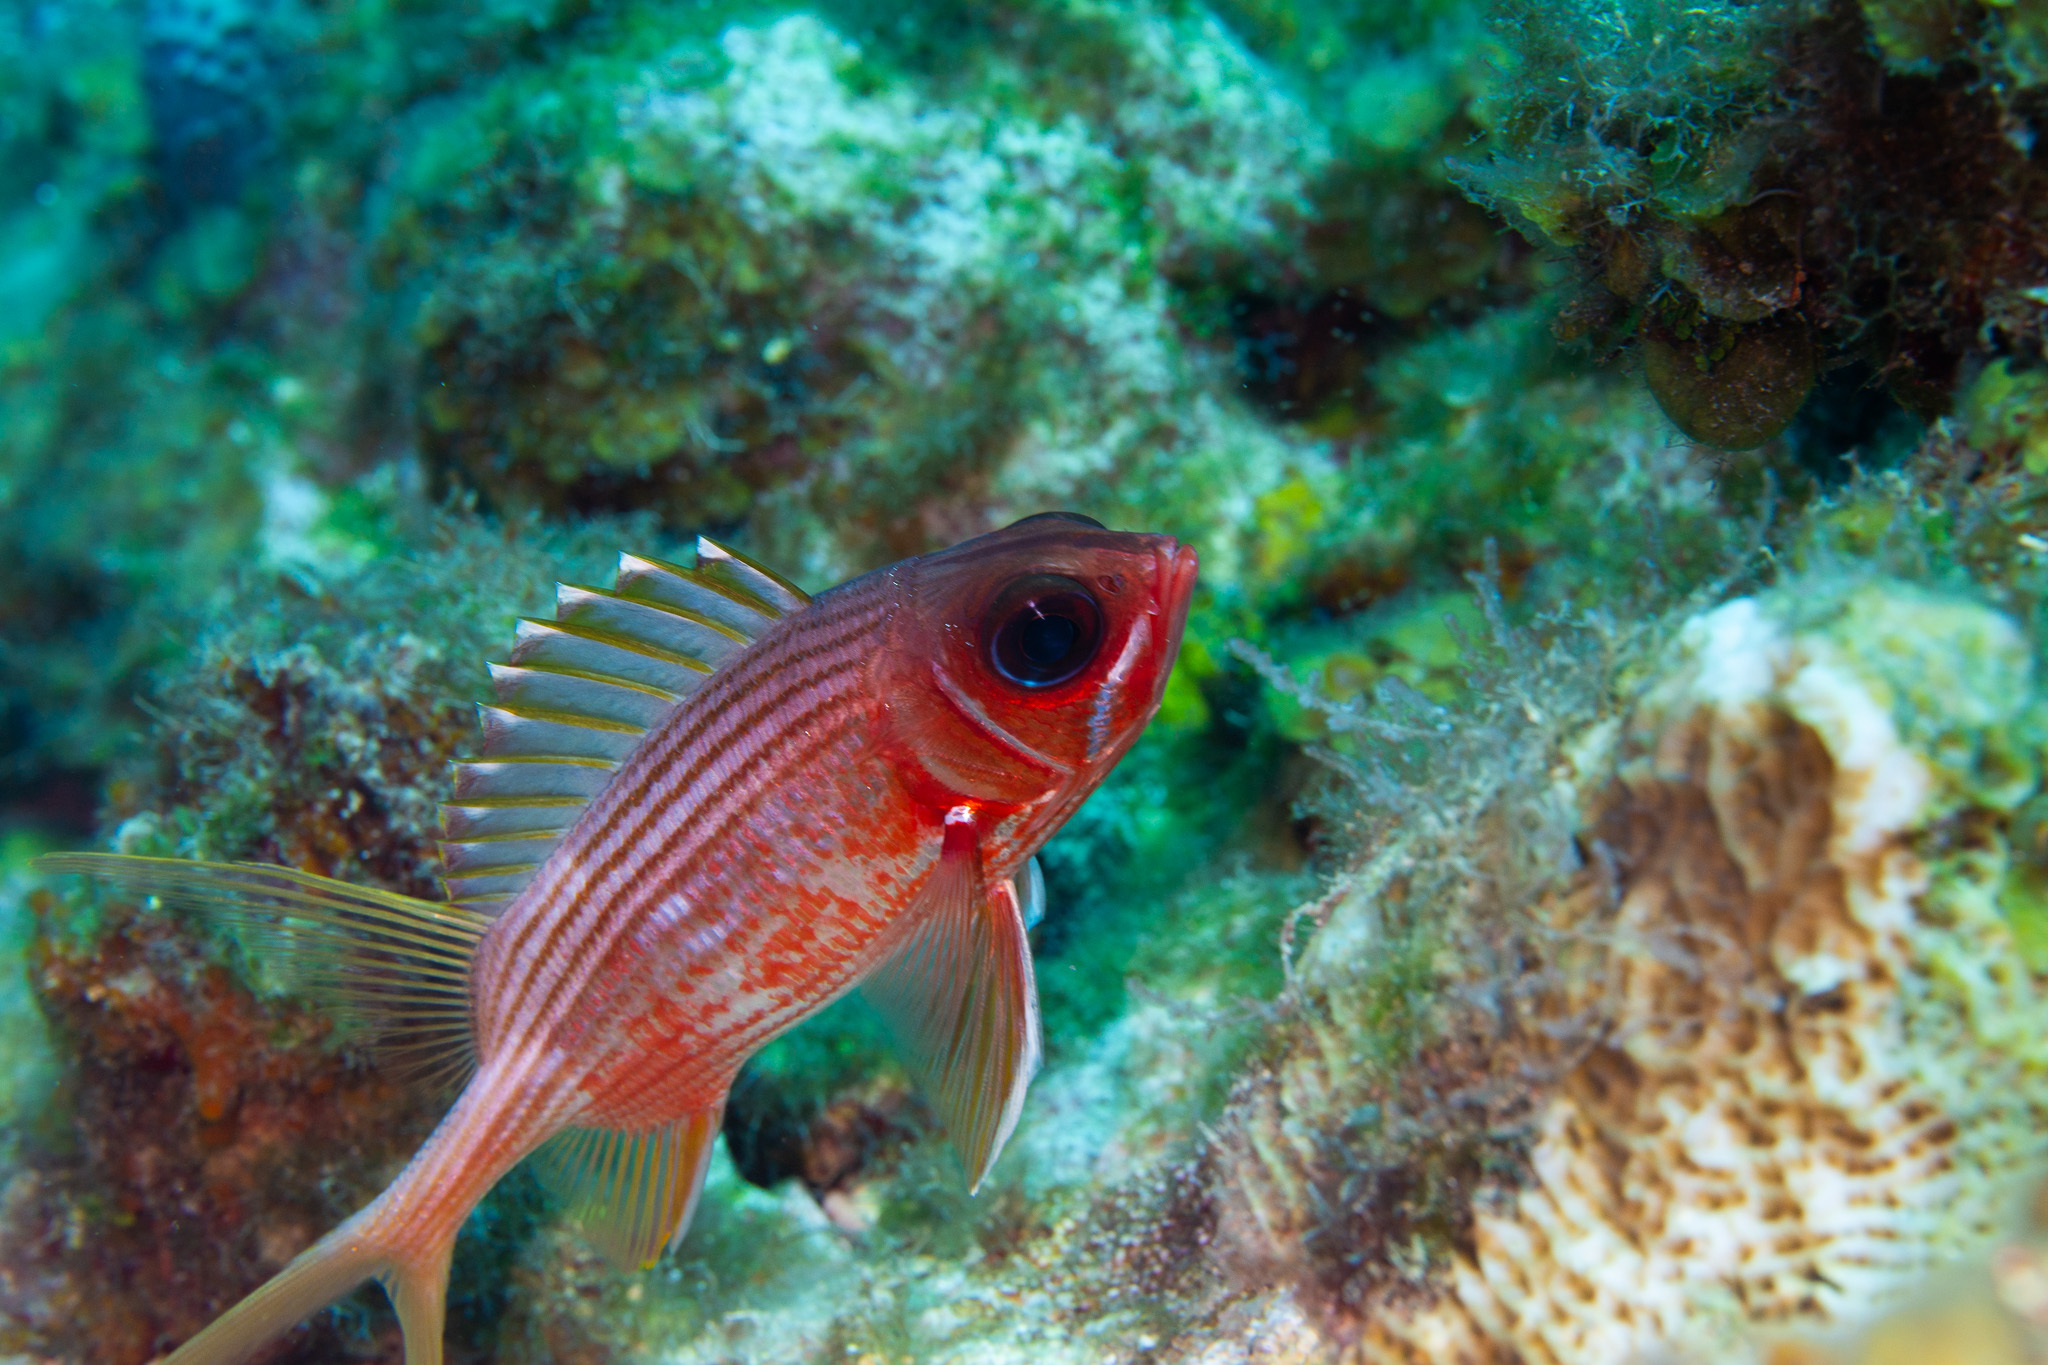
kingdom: Animalia
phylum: Chordata
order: Beryciformes
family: Holocentridae
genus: Holocentrus
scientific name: Holocentrus rufus
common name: Longspine squirrelfish
